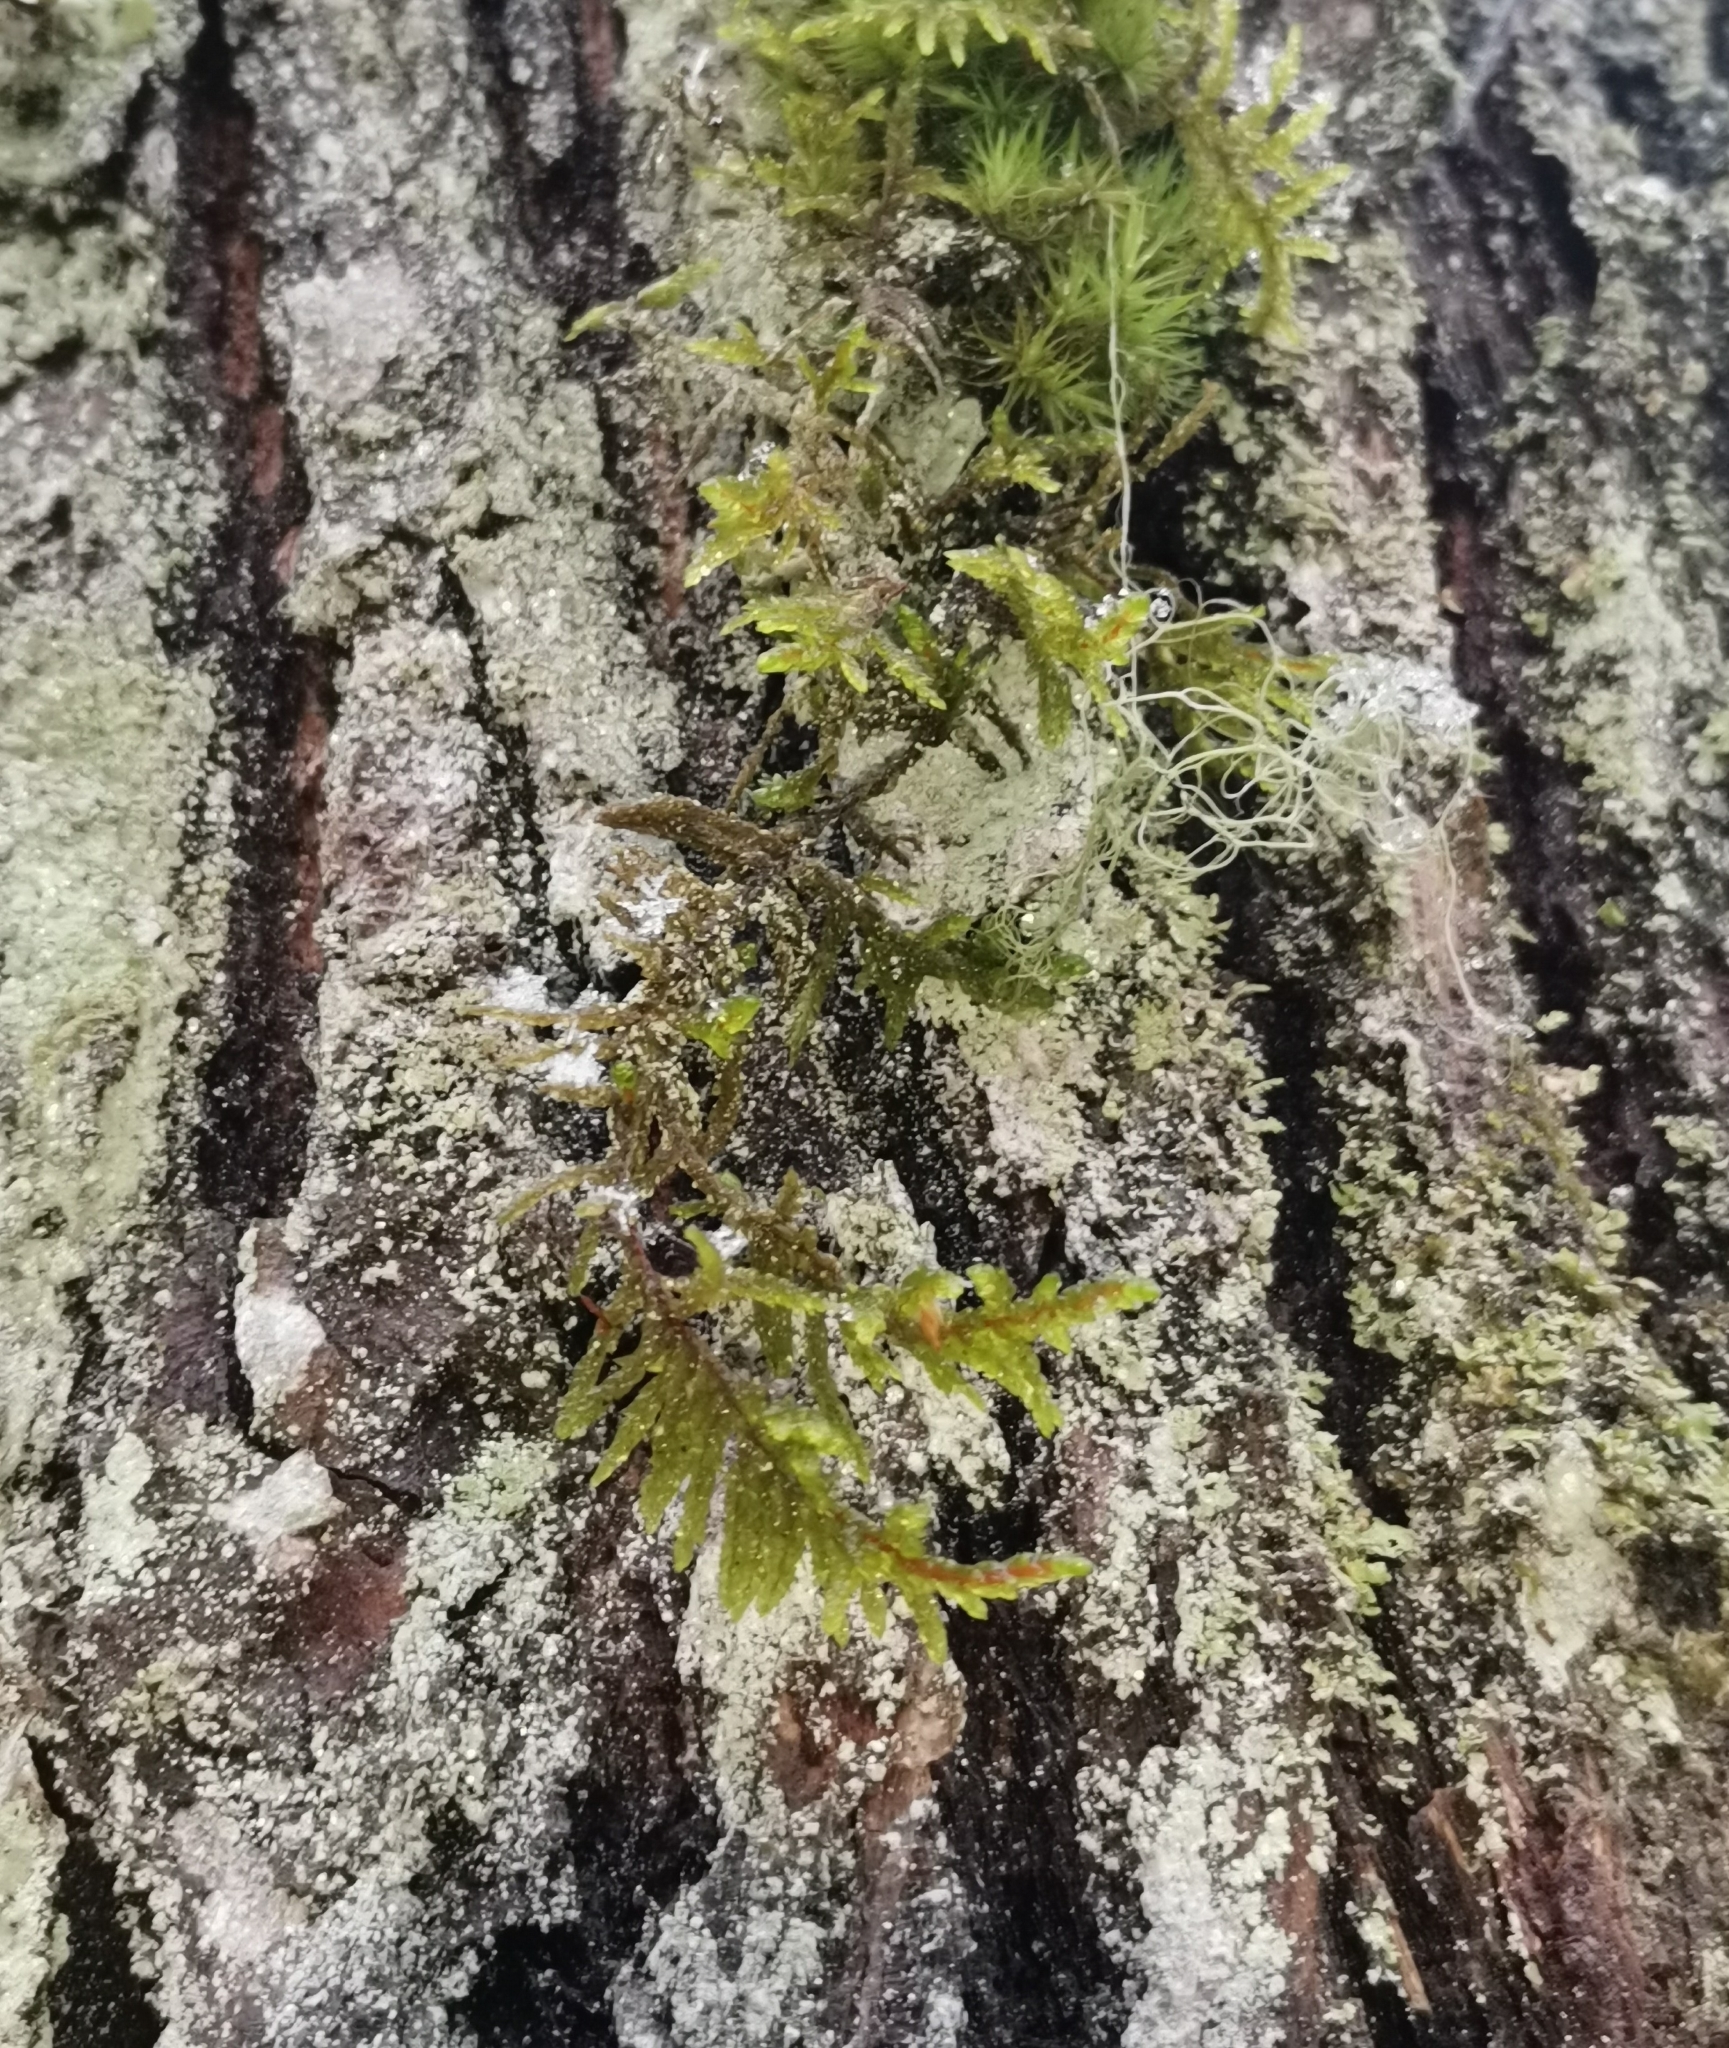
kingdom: Plantae
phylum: Bryophyta
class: Bryopsida
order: Hypnales
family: Hylocomiaceae
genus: Pleurozium
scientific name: Pleurozium schreberi
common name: Red-stemmed feather moss
